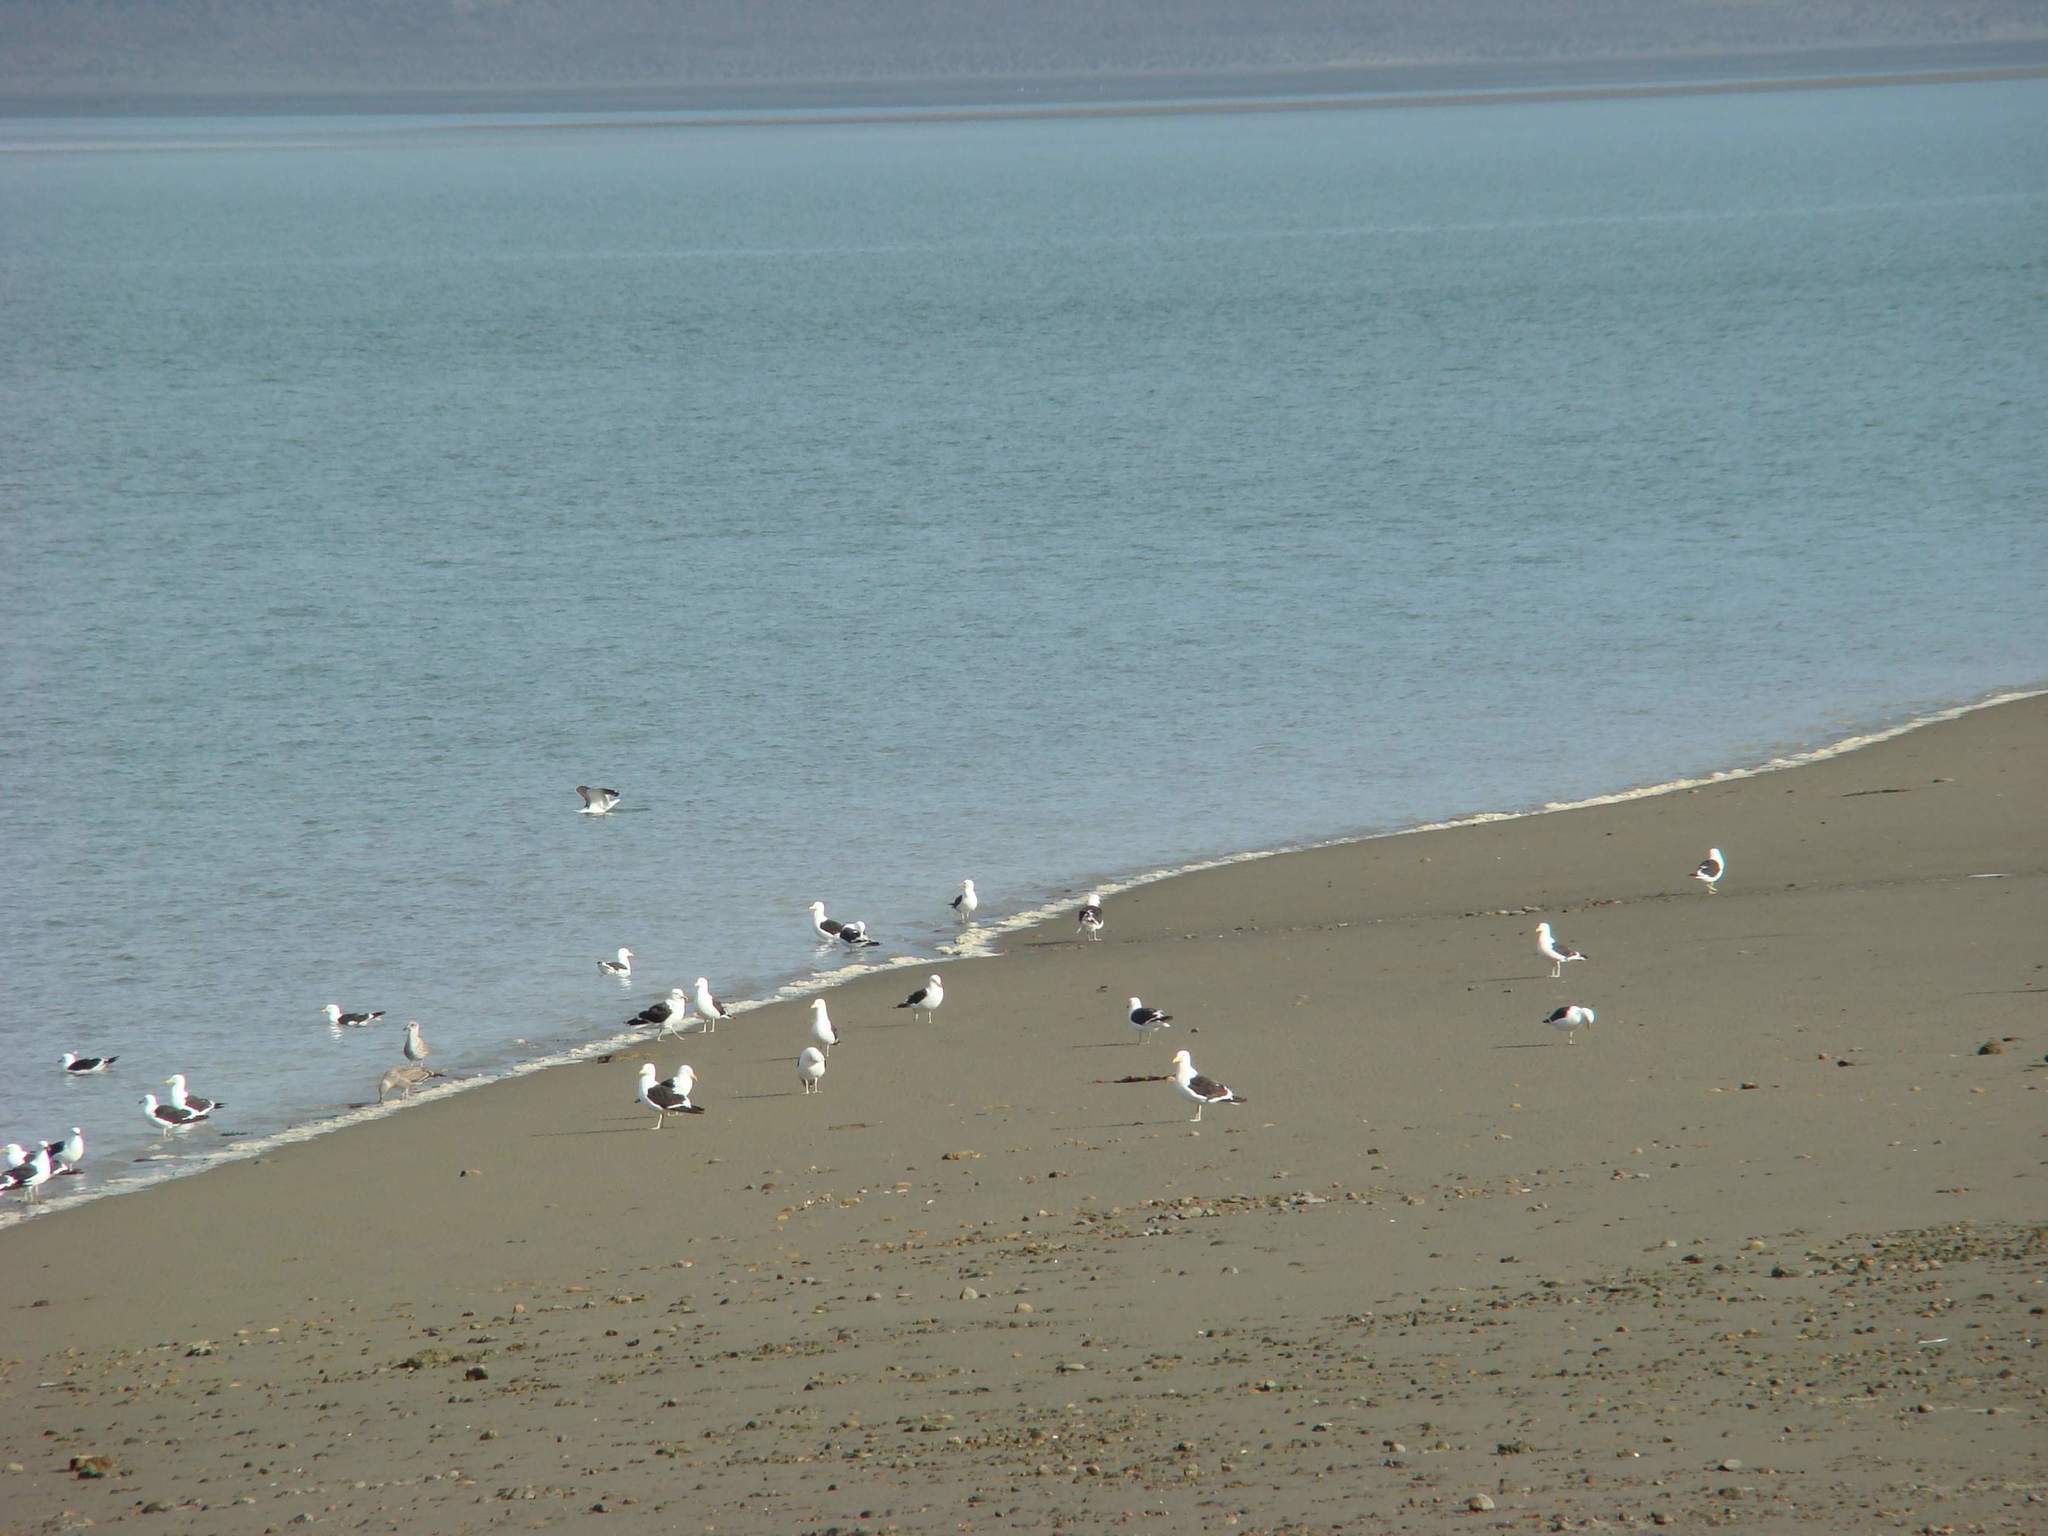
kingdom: Animalia
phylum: Chordata
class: Aves
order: Charadriiformes
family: Laridae
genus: Larus
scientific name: Larus dominicanus
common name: Kelp gull
